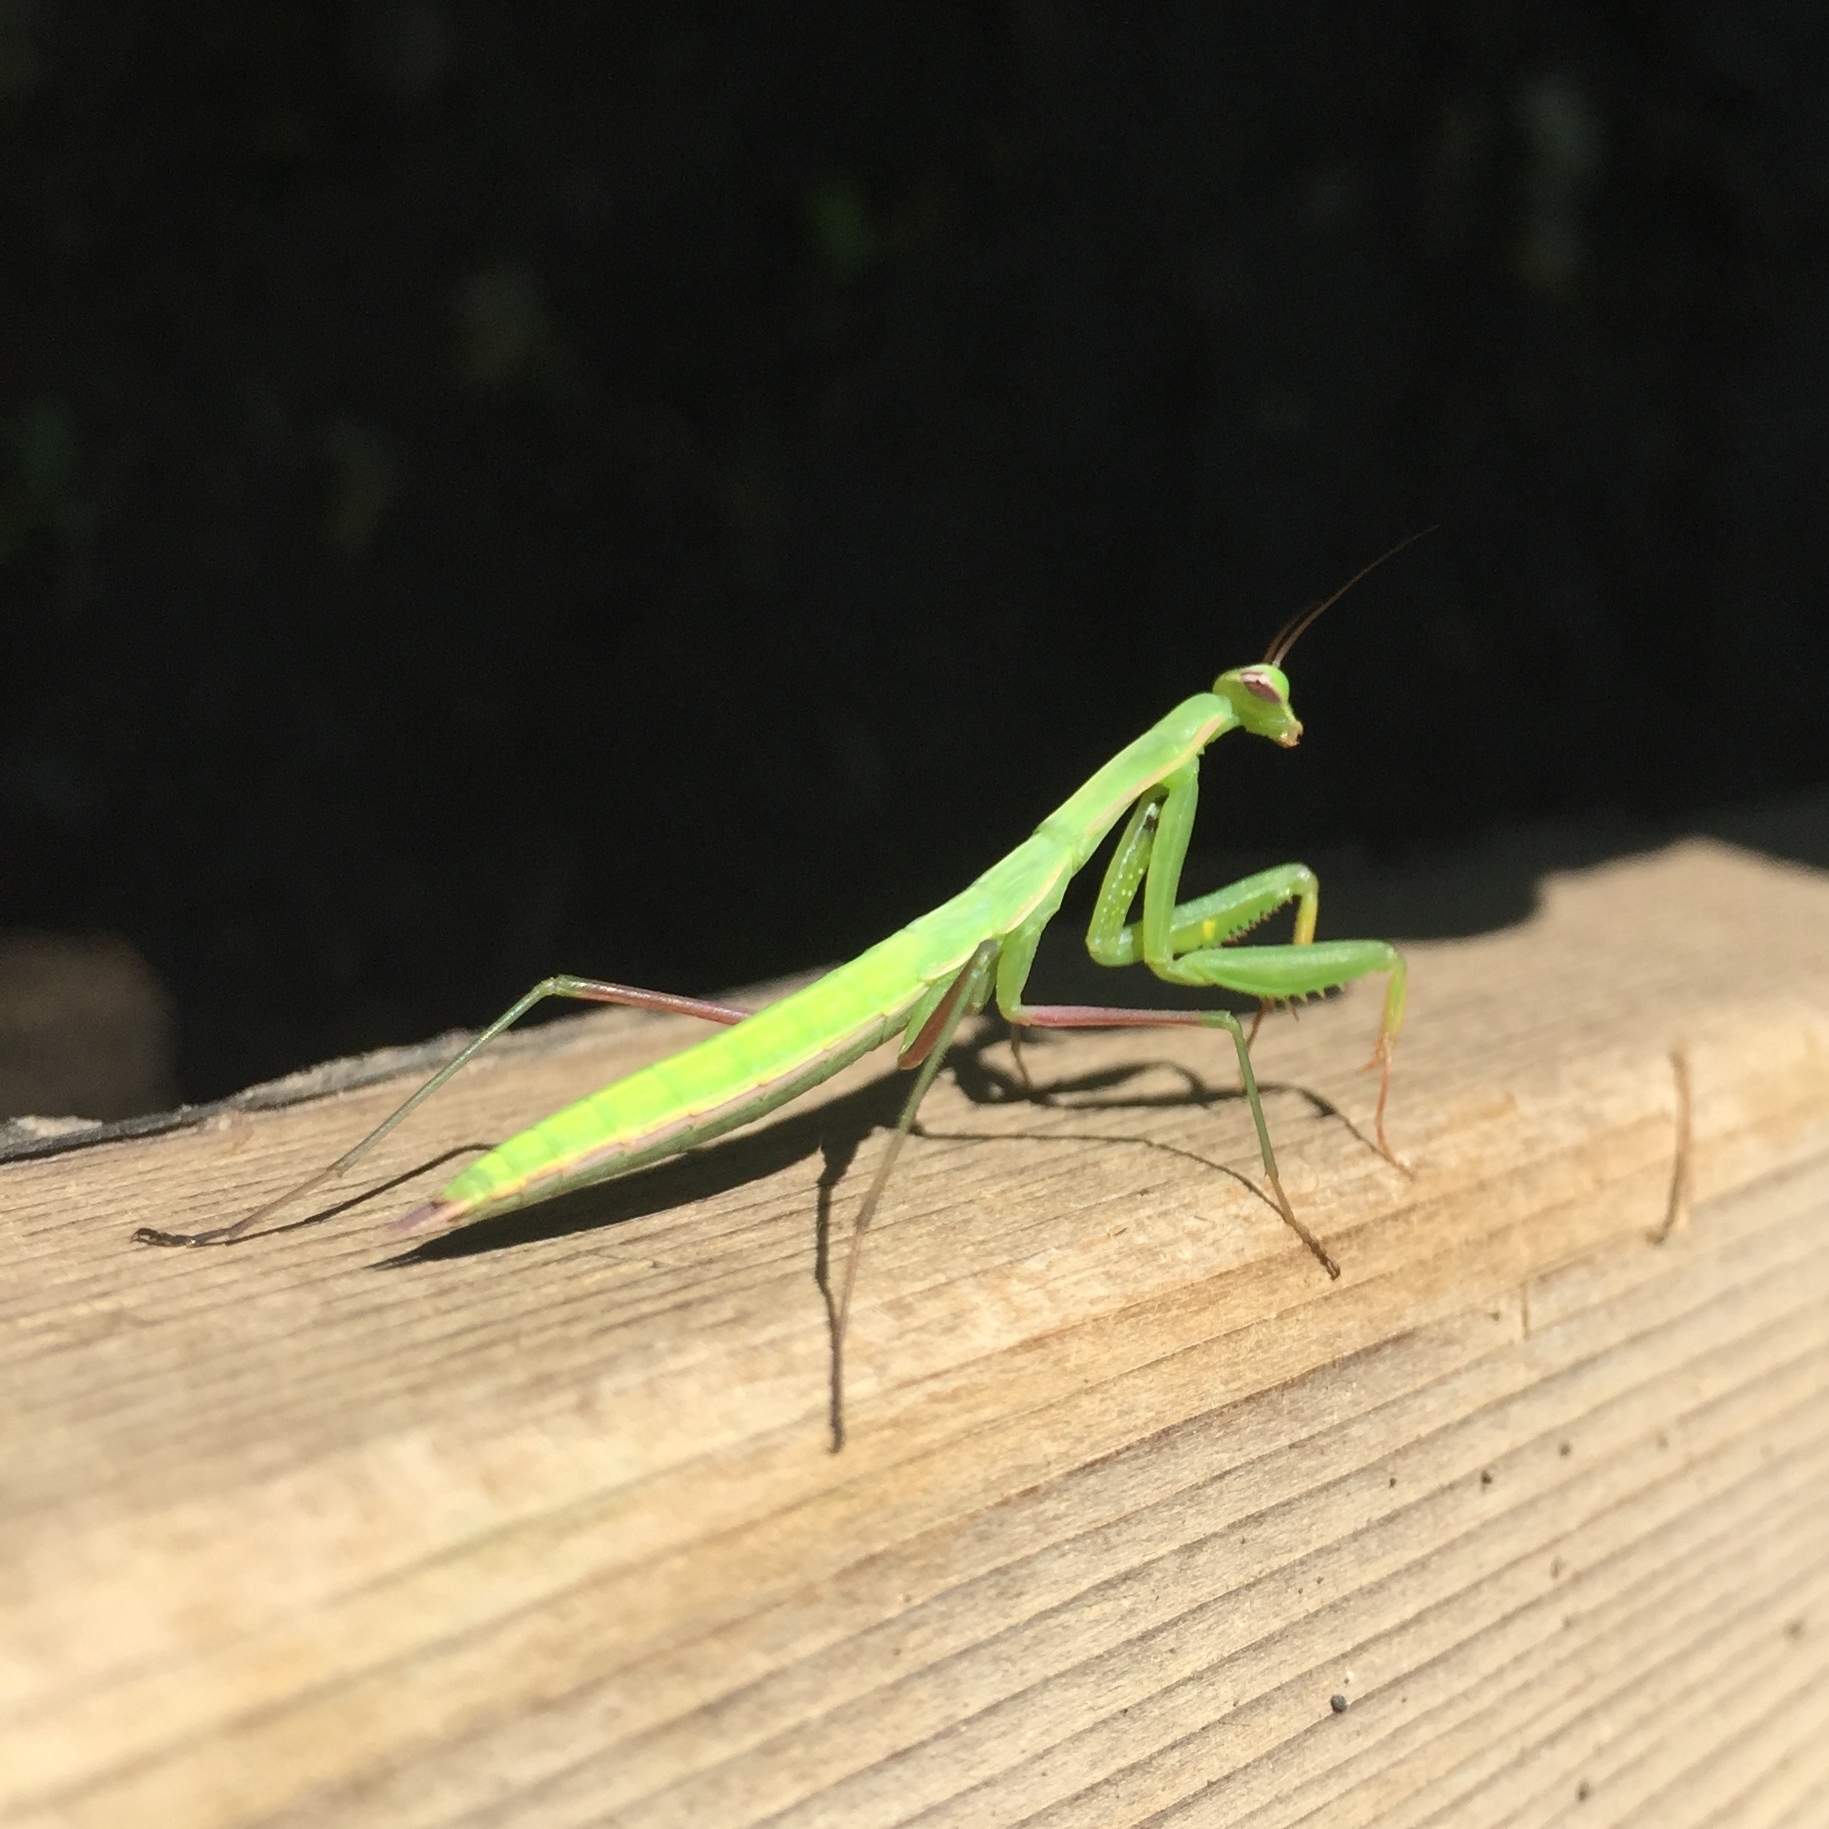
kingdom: Animalia
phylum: Arthropoda
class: Insecta
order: Mantodea
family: Mantidae
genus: Mantis
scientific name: Mantis religiosa
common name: Praying mantis
